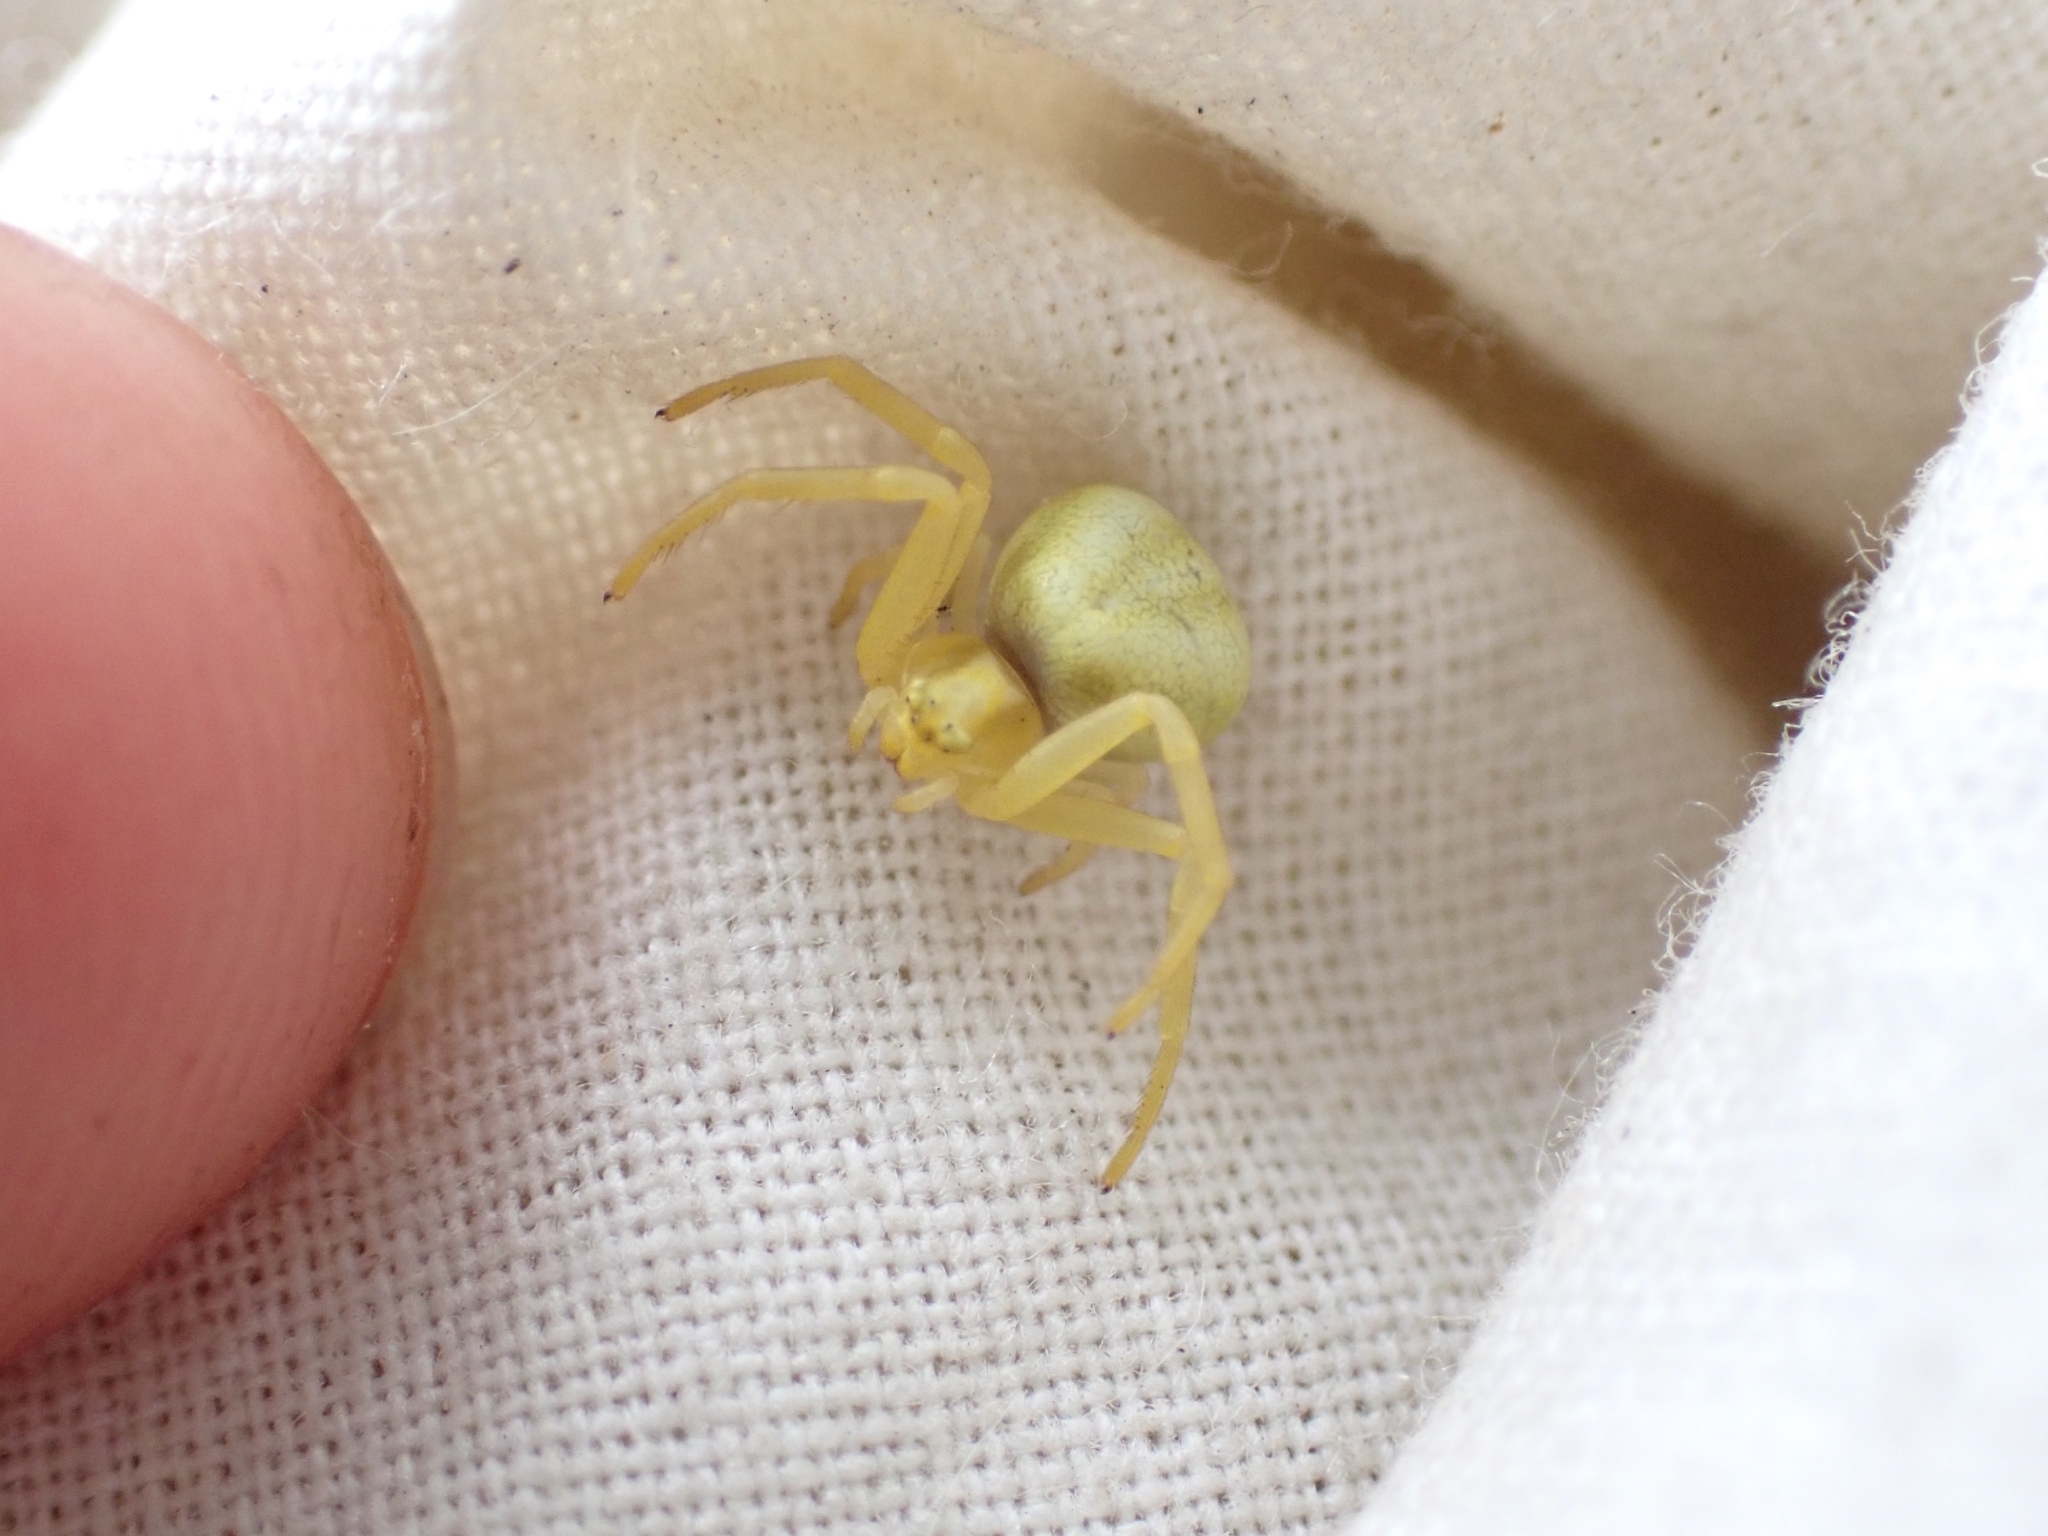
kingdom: Animalia
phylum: Arthropoda
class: Arachnida
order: Araneae
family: Thomisidae
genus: Misumena
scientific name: Misumena vatia
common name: Goldenrod crab spider
